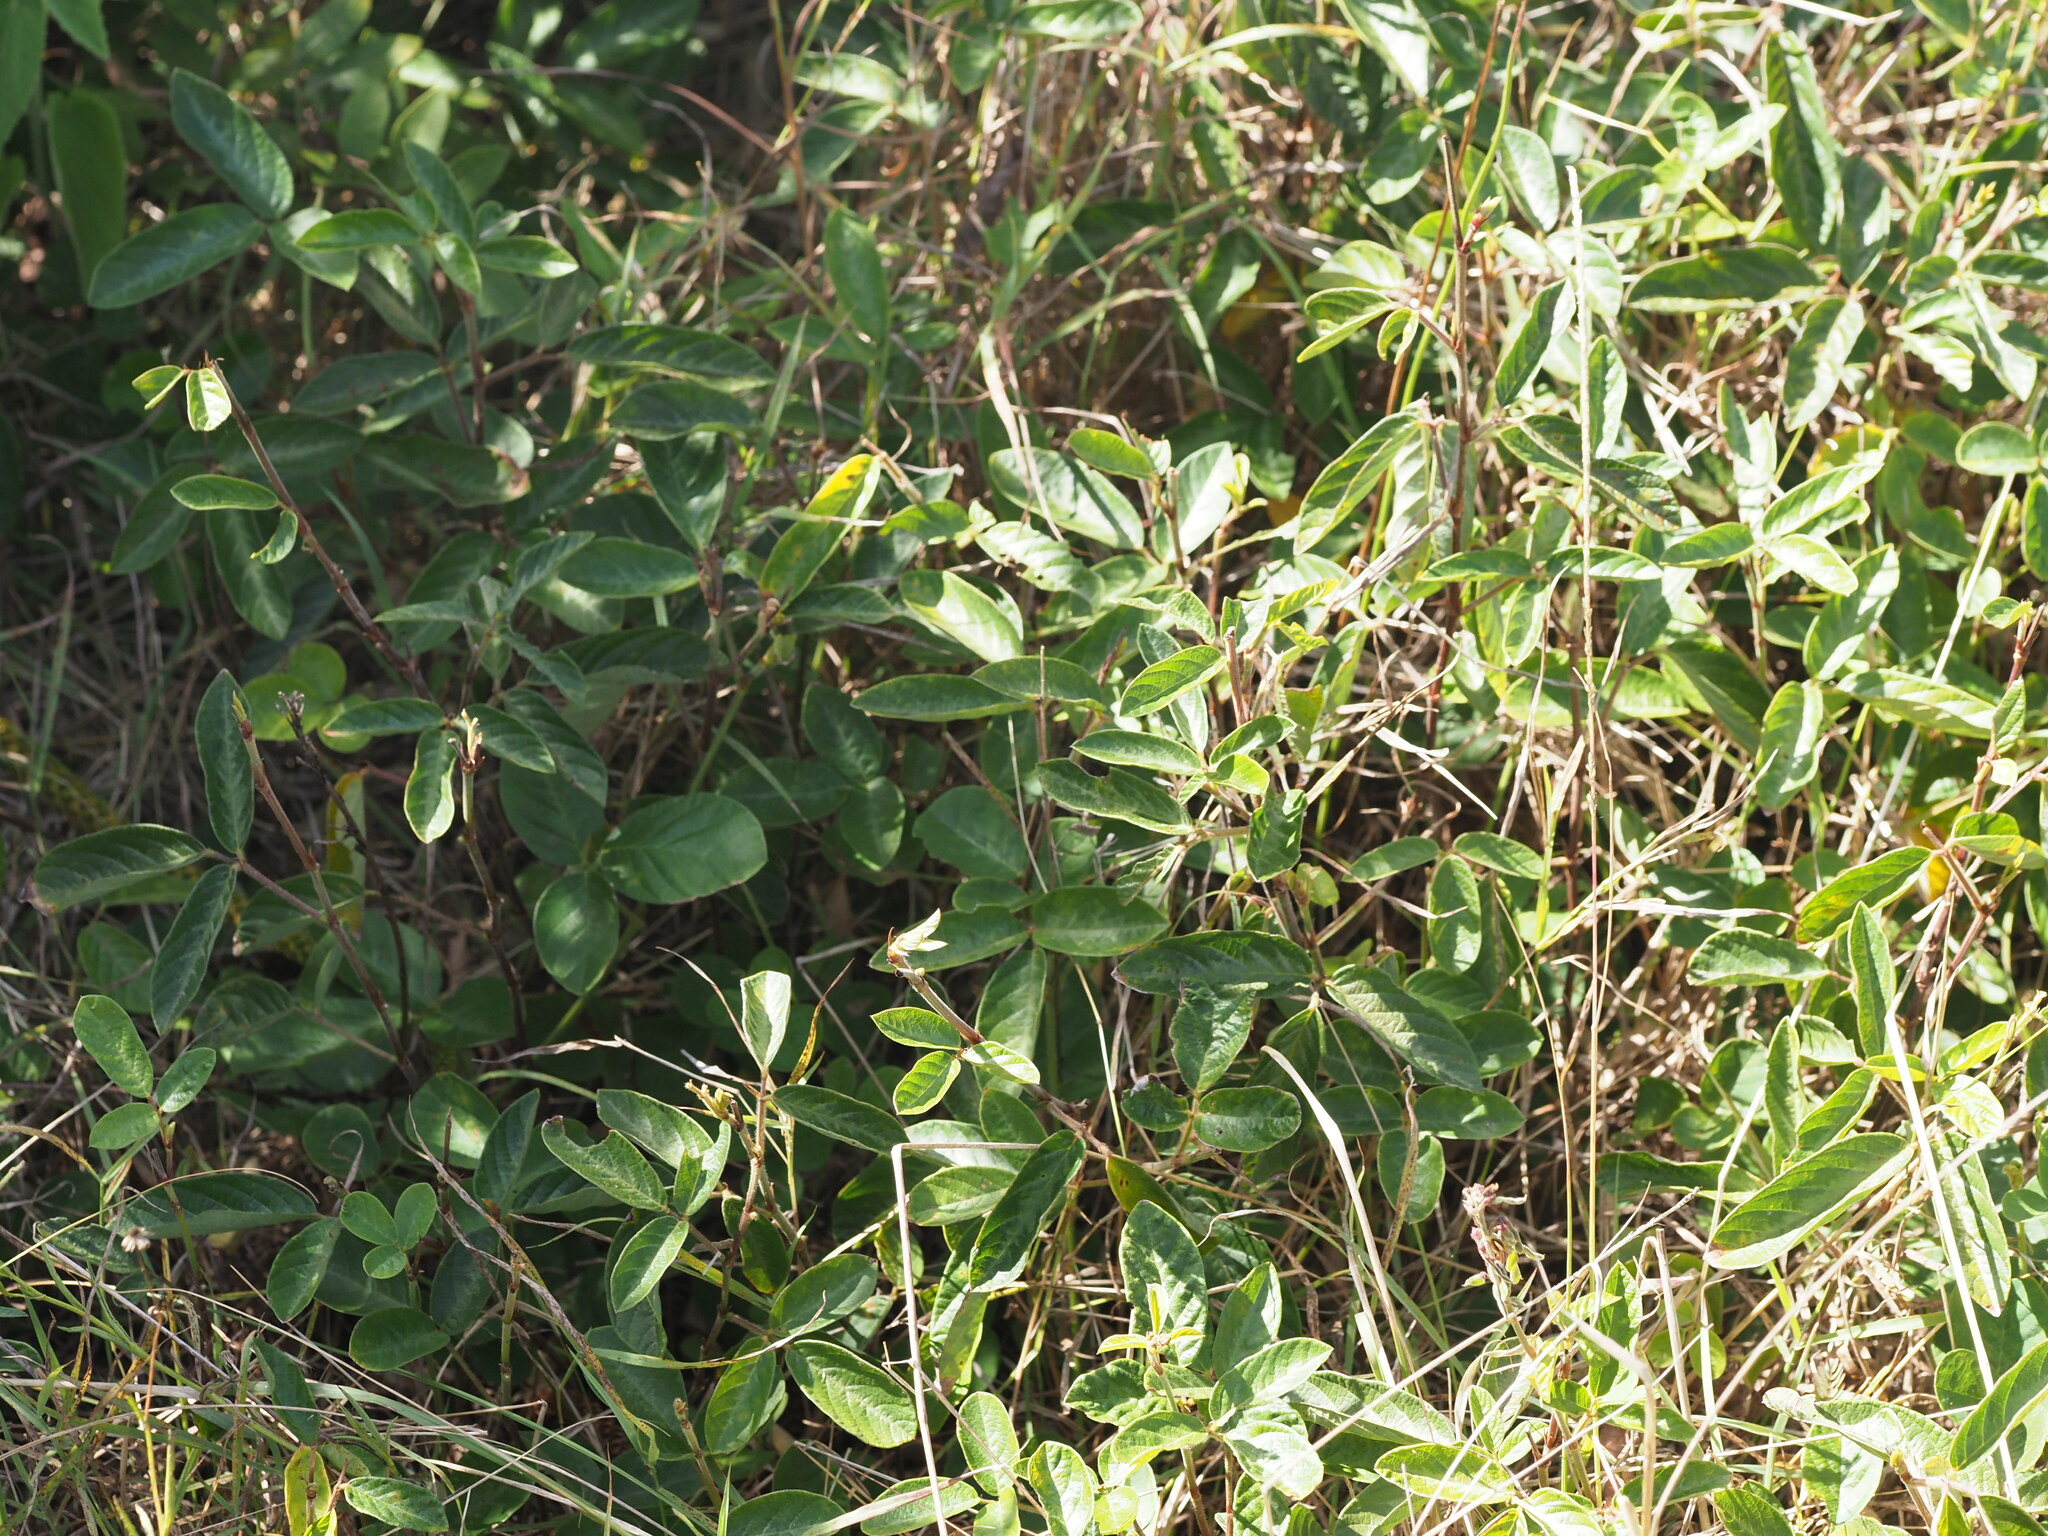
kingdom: Plantae
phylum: Tracheophyta
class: Magnoliopsida
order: Fabales
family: Fabaceae
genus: Desmodium
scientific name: Desmodium incanum
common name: Tickclover
